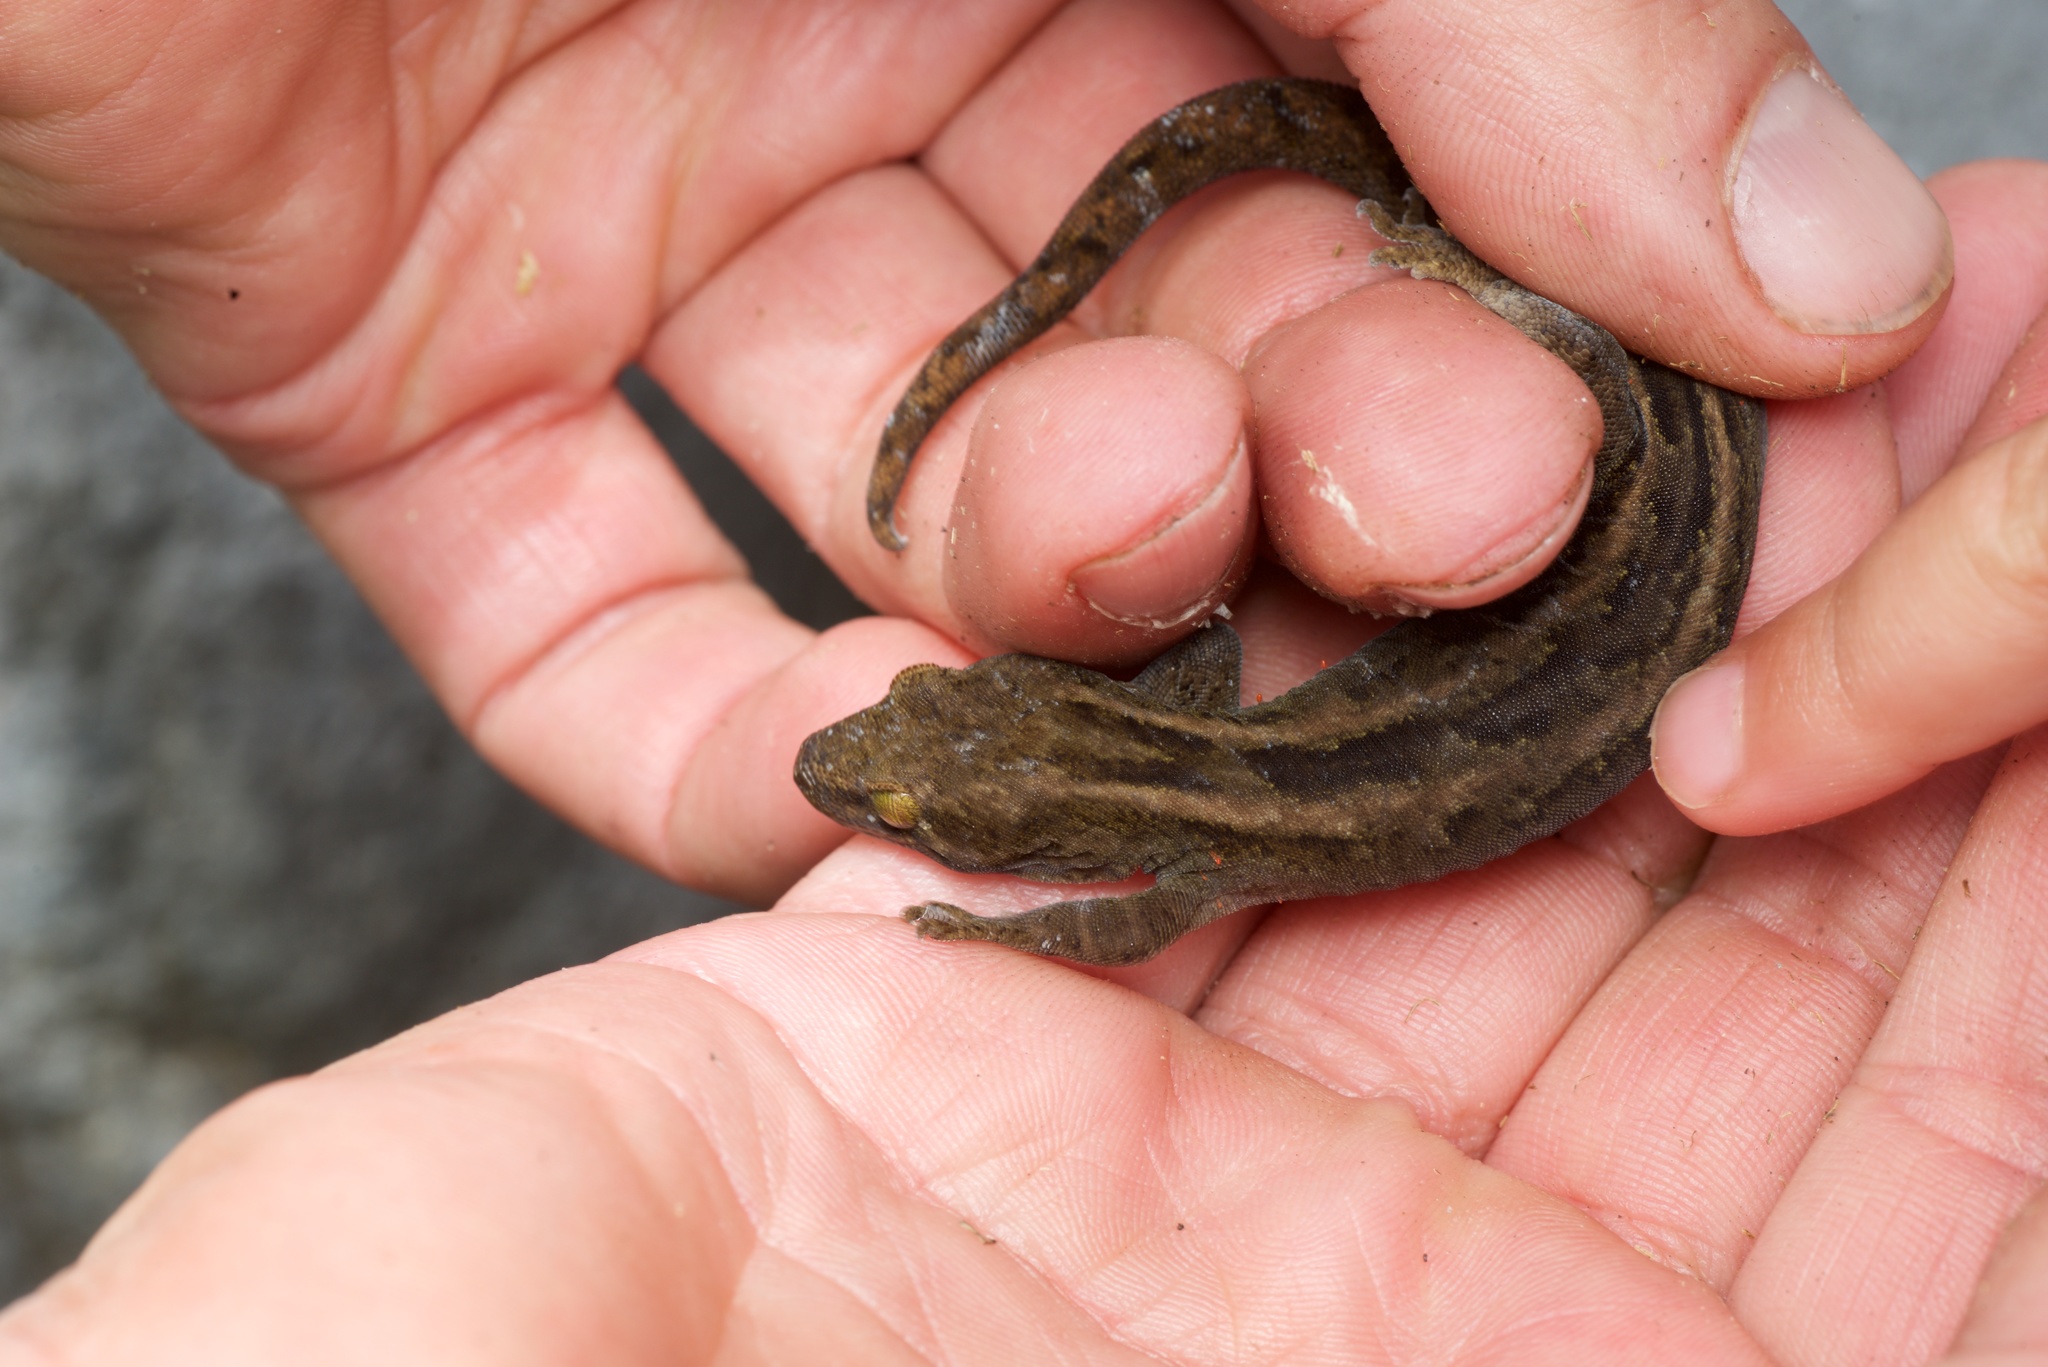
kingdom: Animalia
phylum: Chordata
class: Squamata
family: Diplodactylidae
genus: Woodworthia
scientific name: Woodworthia brunnea
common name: Canterbury gecko
